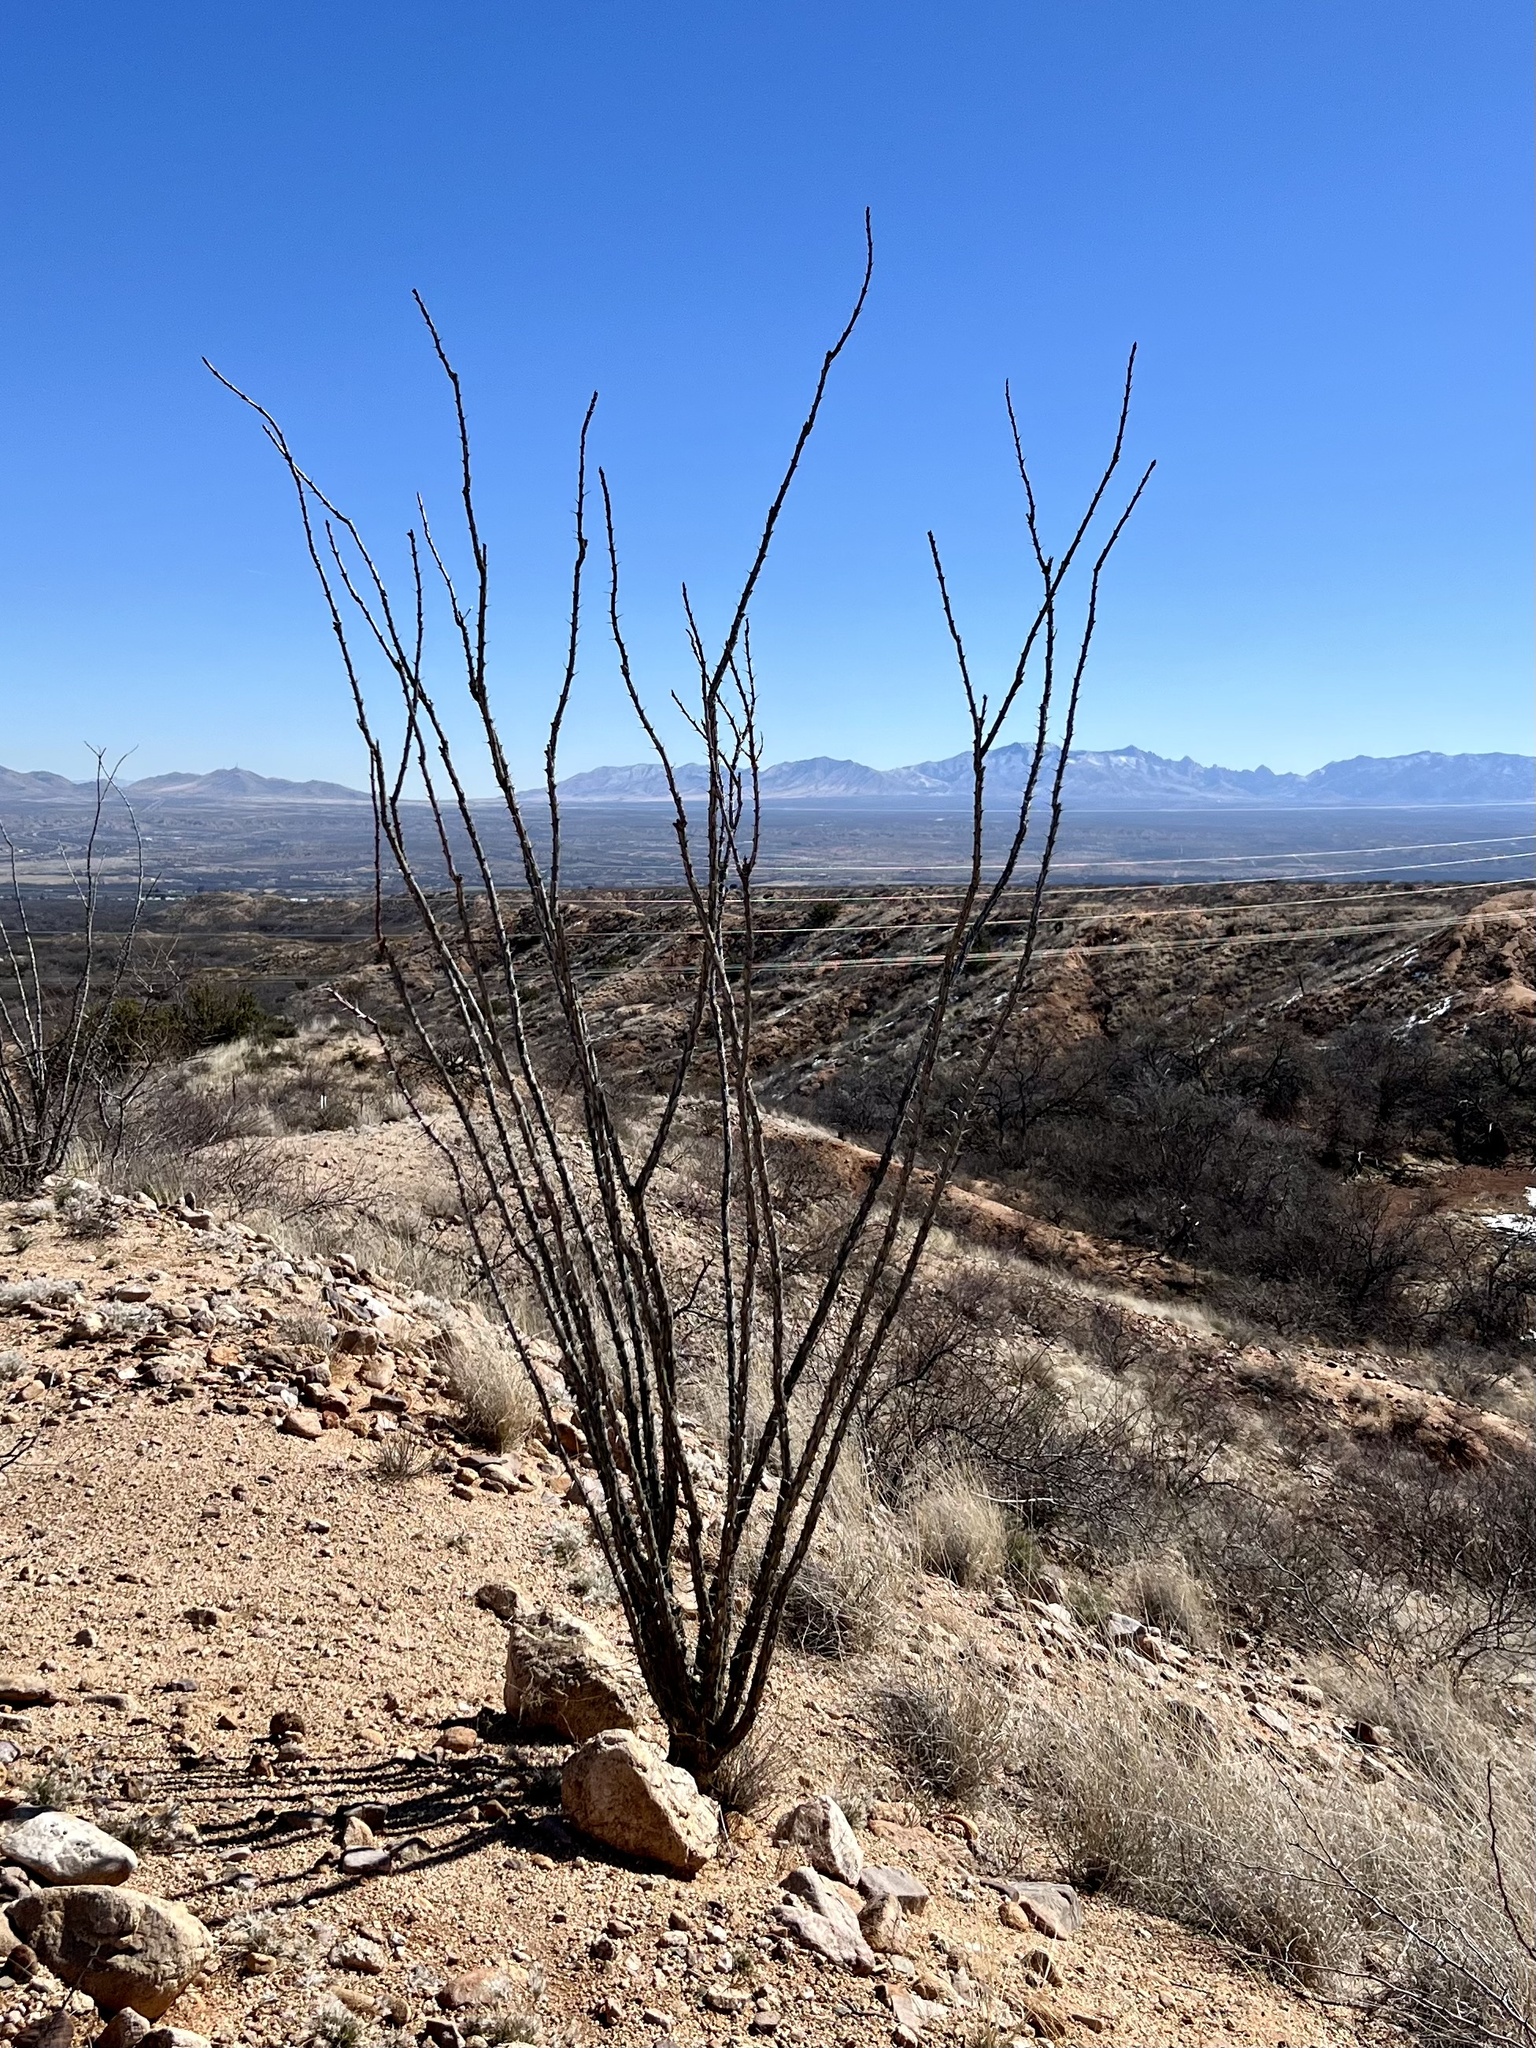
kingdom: Plantae
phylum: Tracheophyta
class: Magnoliopsida
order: Ericales
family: Fouquieriaceae
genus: Fouquieria
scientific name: Fouquieria splendens
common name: Vine-cactus
